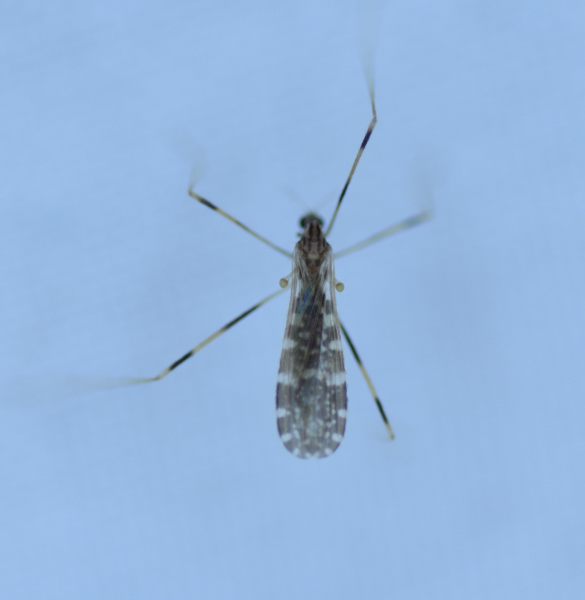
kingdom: Animalia
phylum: Arthropoda
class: Insecta
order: Diptera
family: Limoniidae
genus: Erioptera
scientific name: Erioptera caliptera
